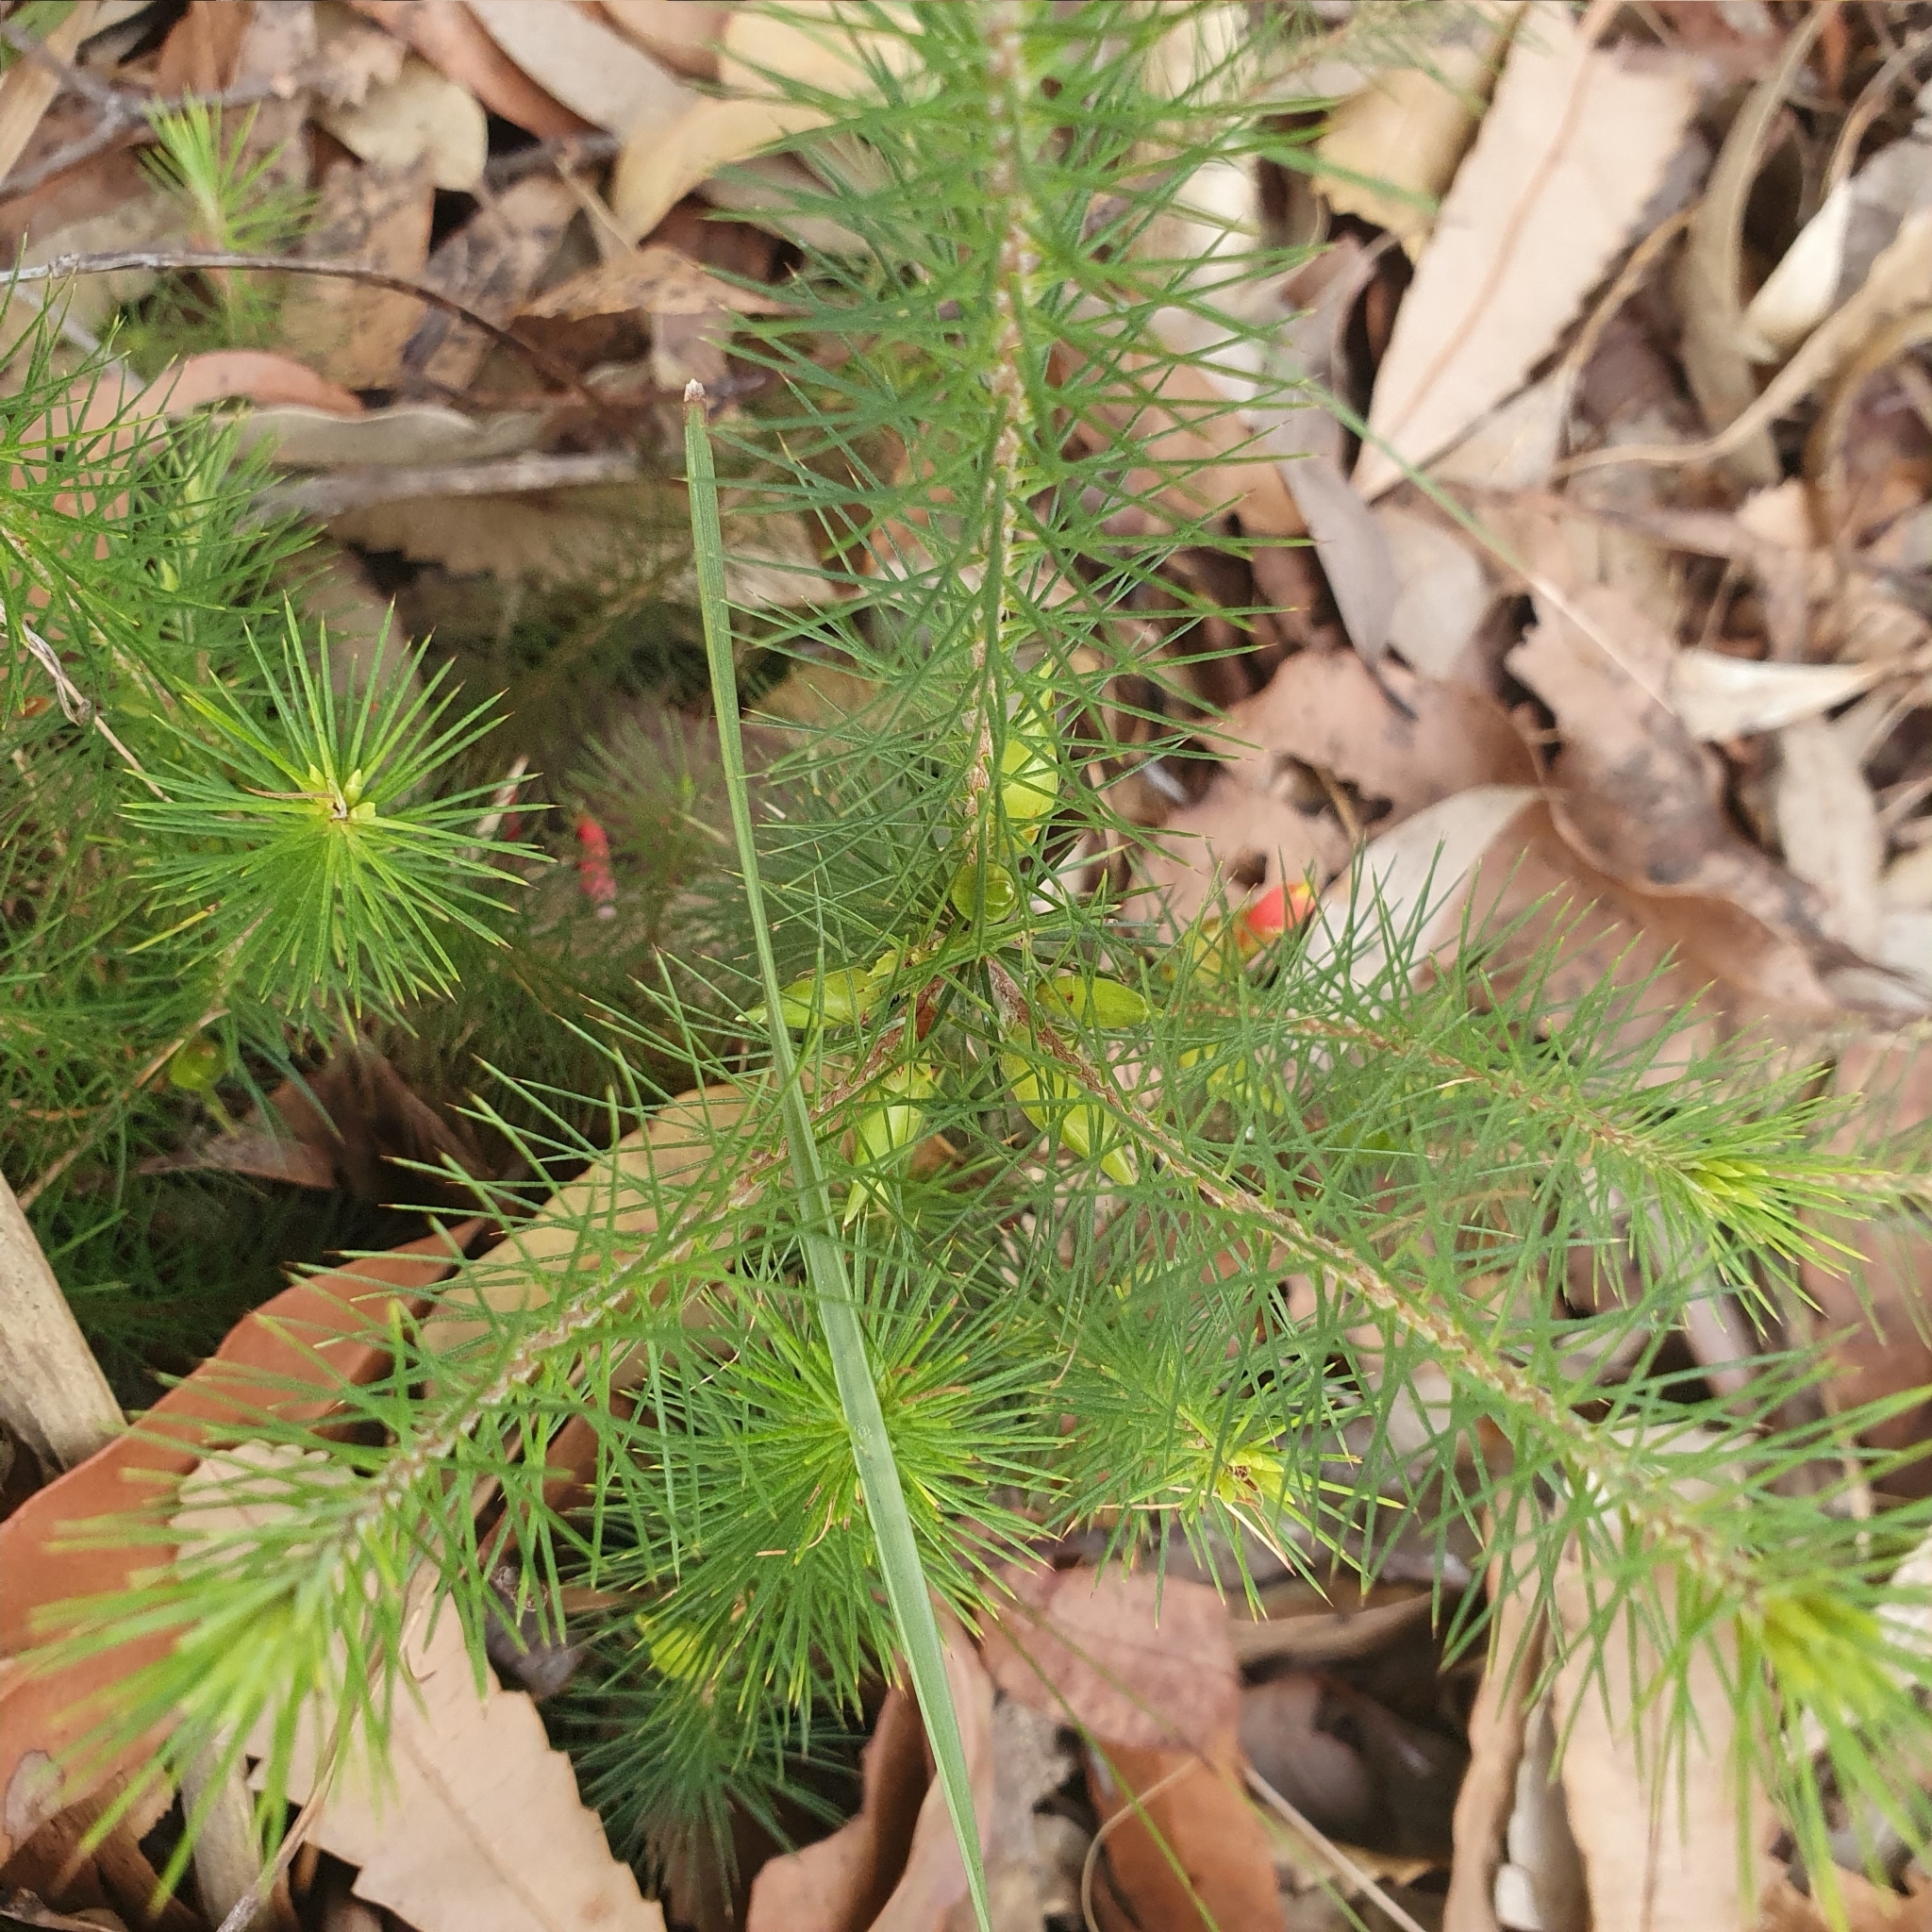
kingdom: Plantae
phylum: Tracheophyta
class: Magnoliopsida
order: Ericales
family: Ericaceae
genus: Stenanthera
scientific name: Stenanthera pinifolia
